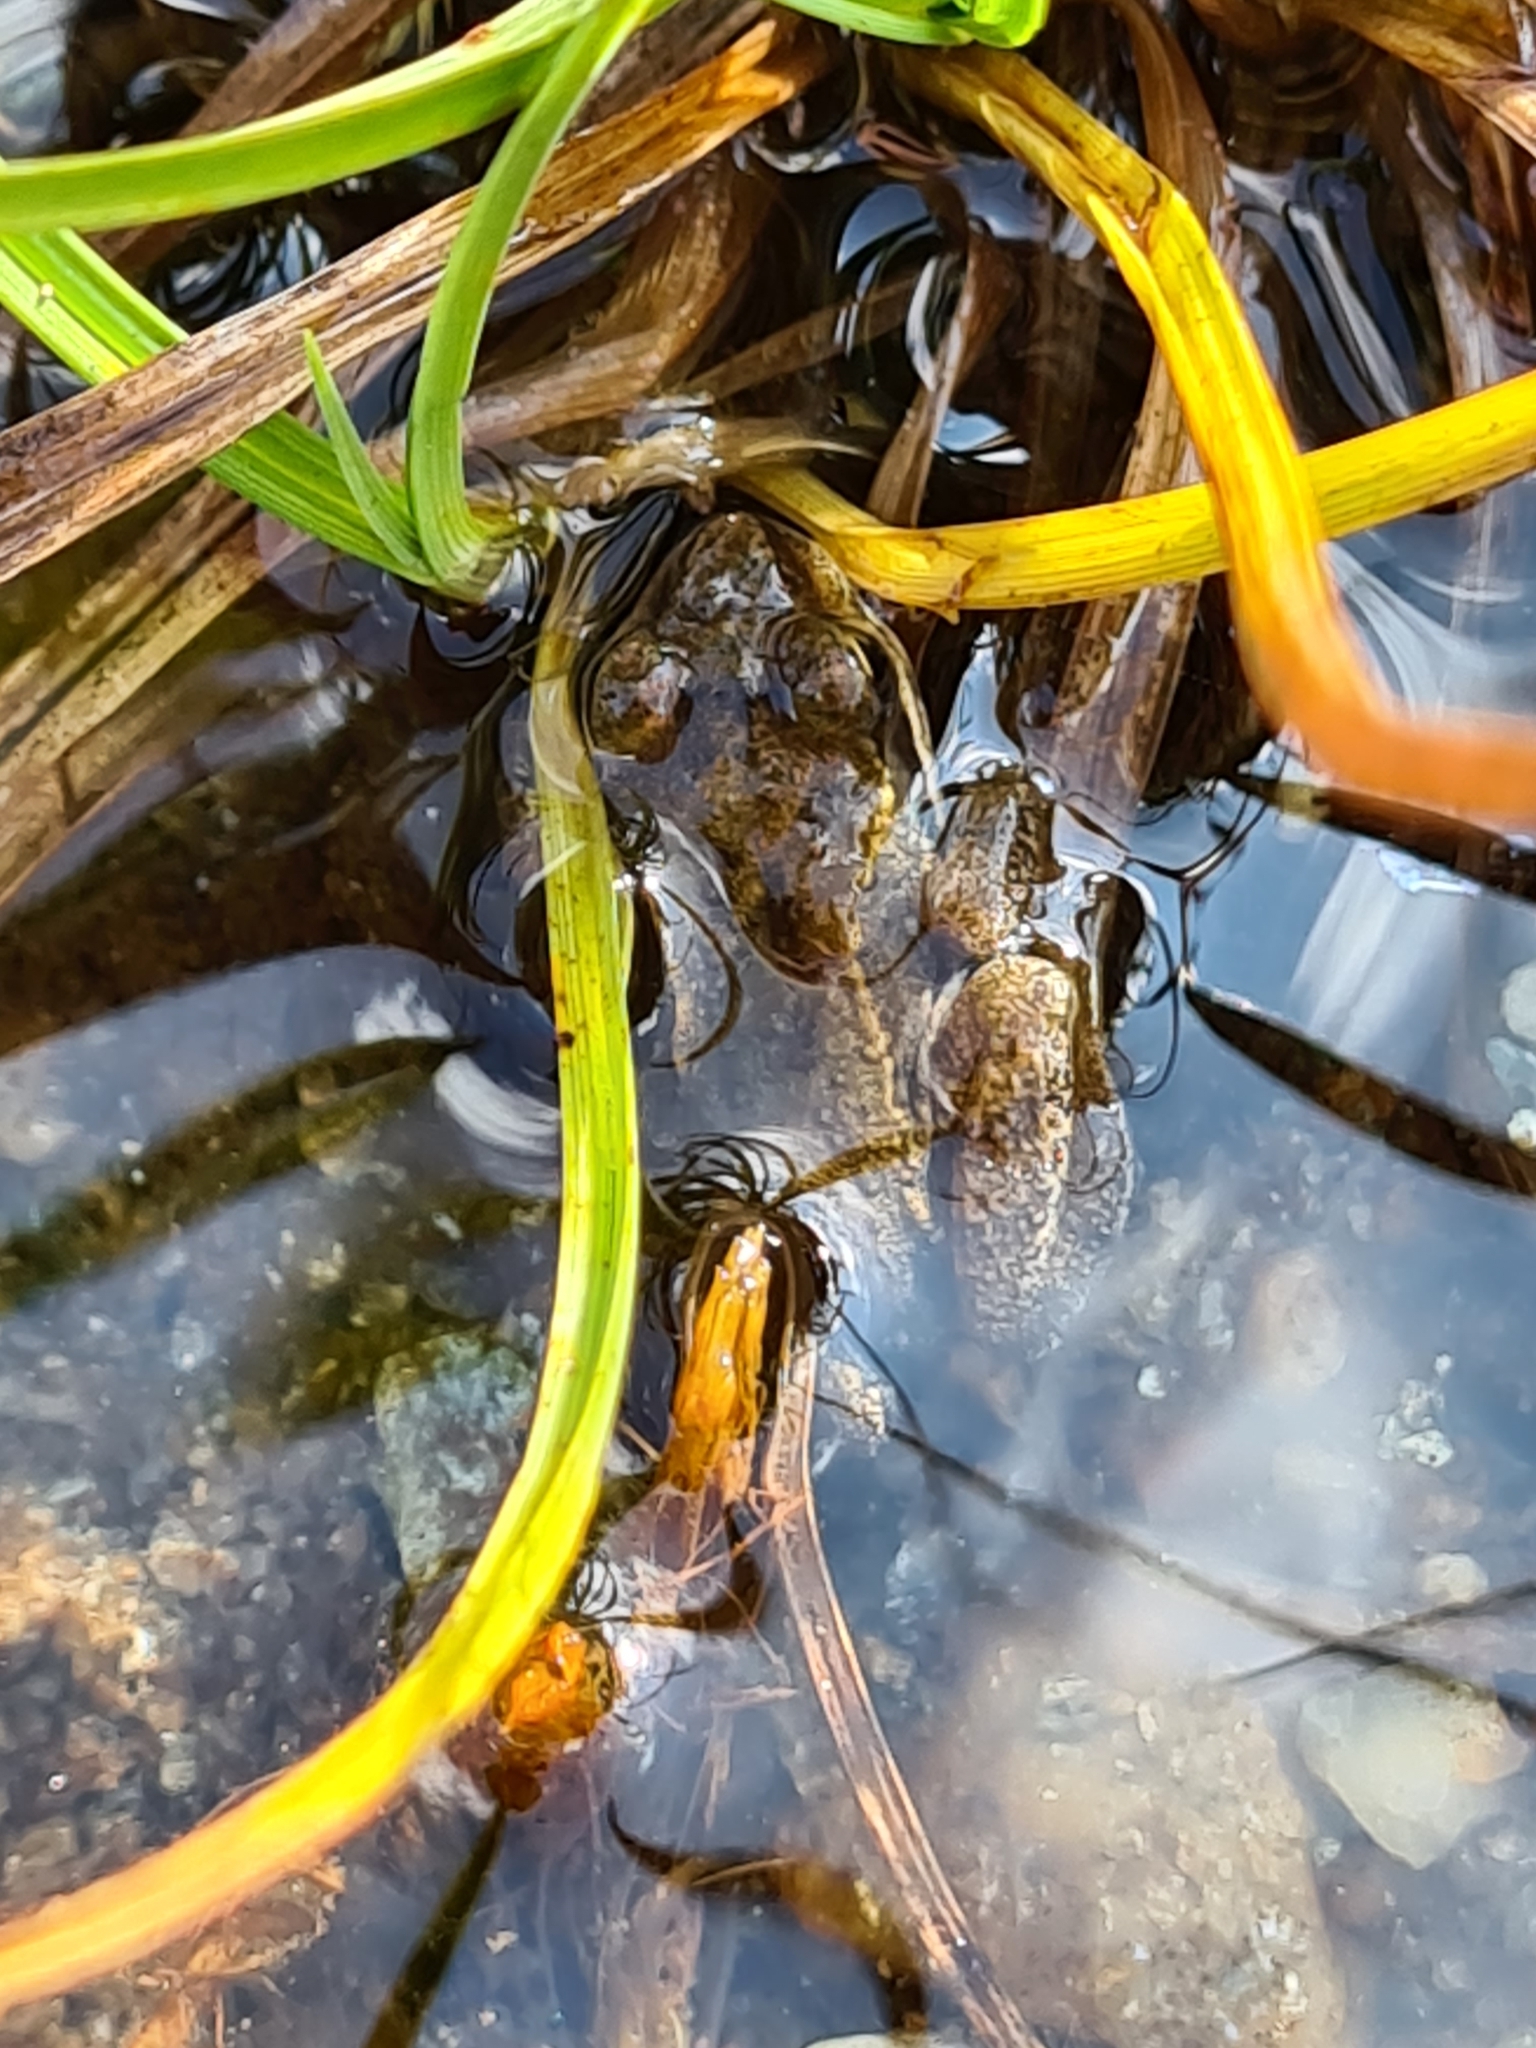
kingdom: Animalia
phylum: Chordata
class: Amphibia
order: Anura
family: Ranidae
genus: Rana
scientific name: Rana temporaria
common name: Common frog
